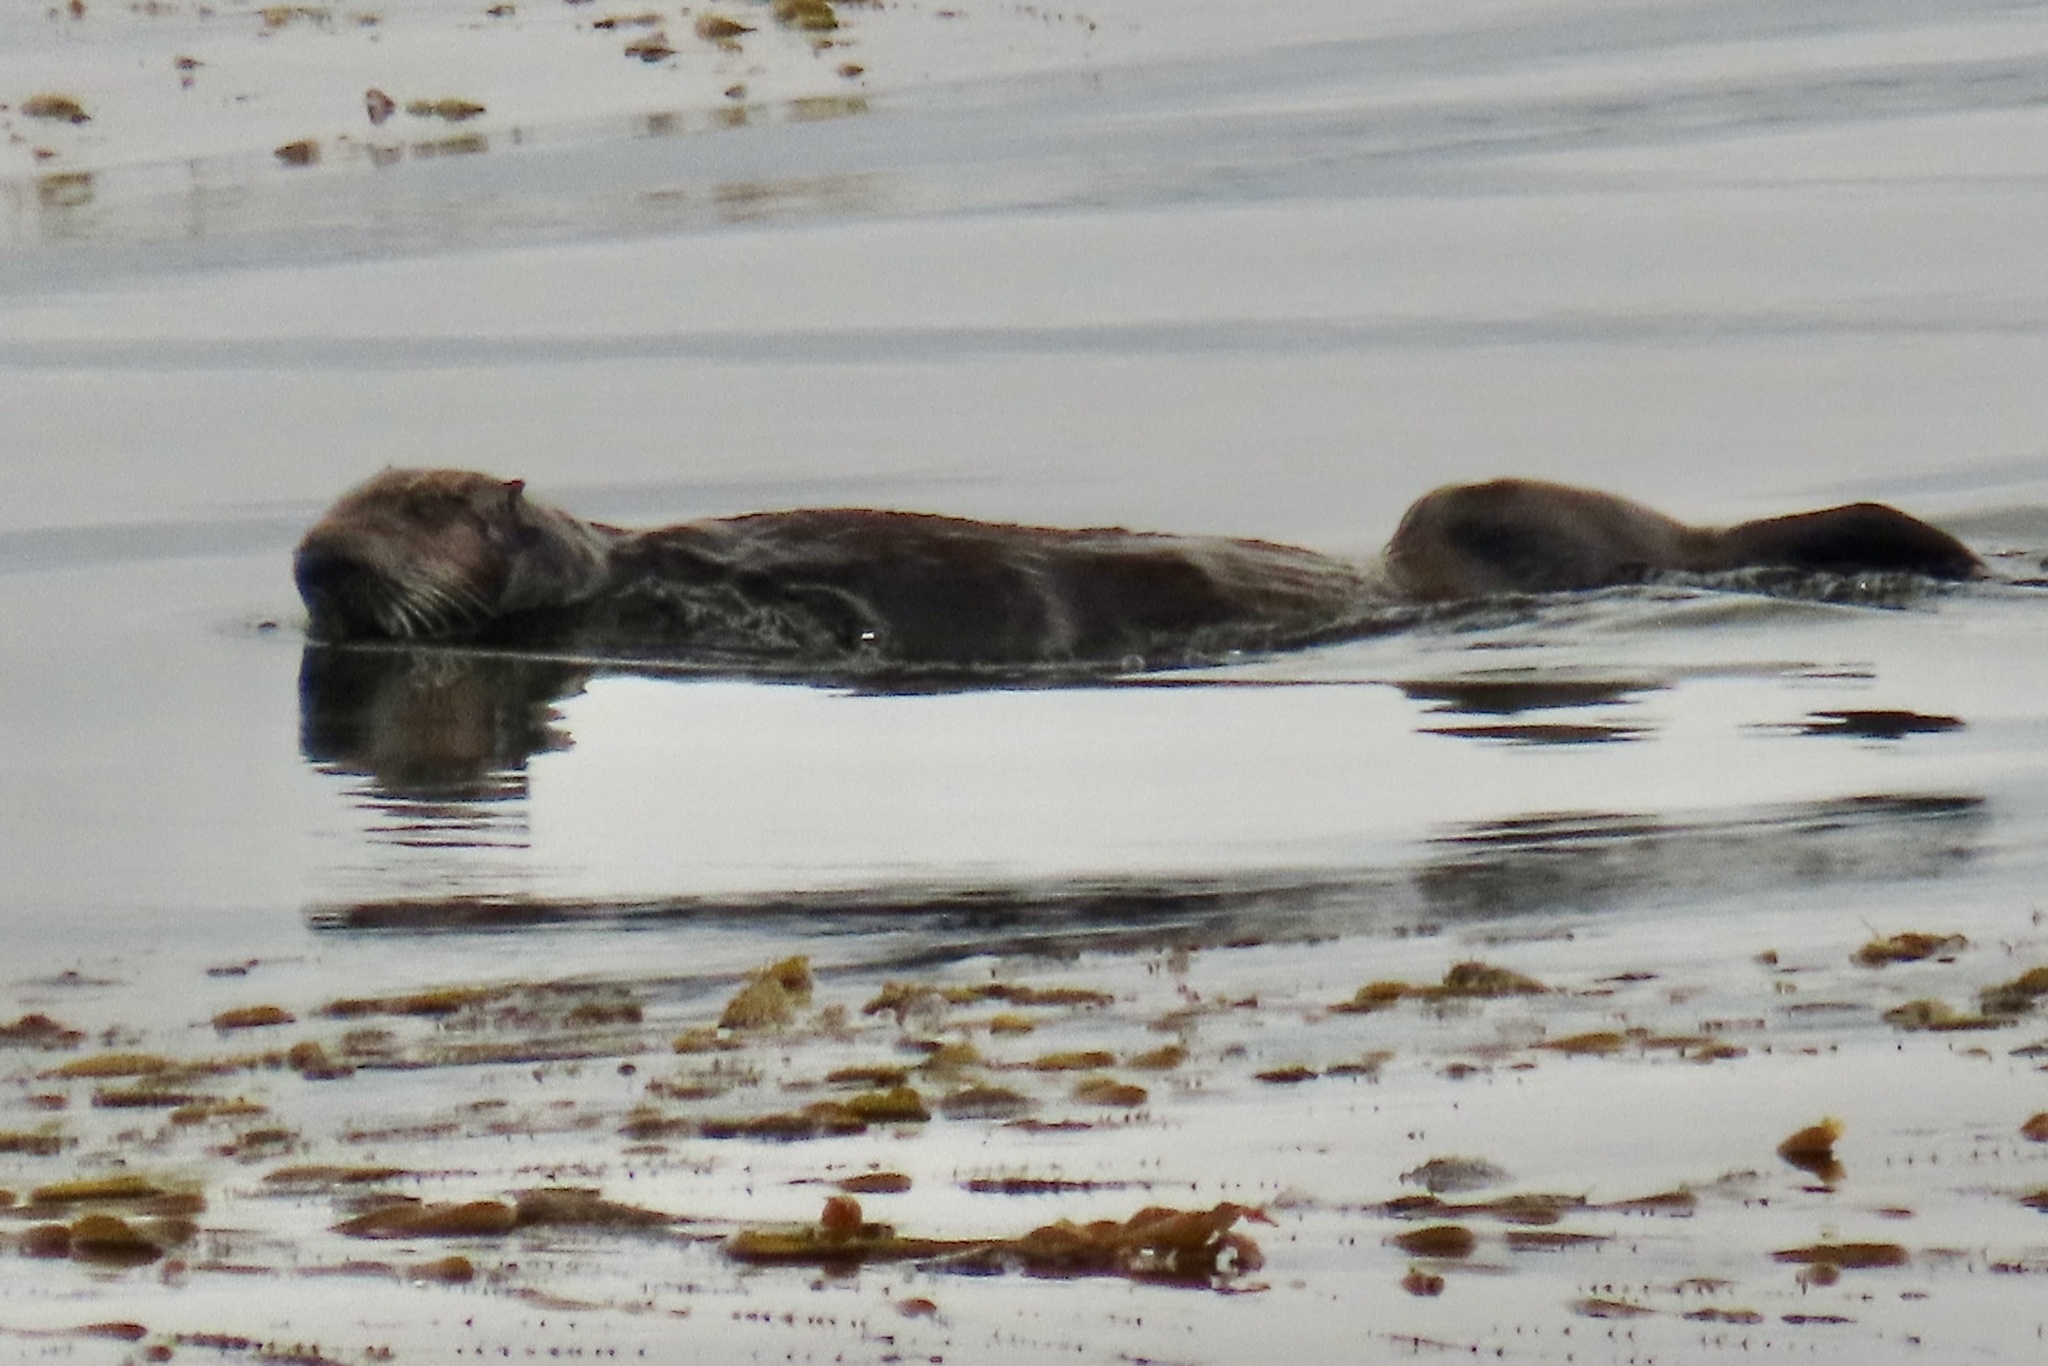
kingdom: Animalia
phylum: Chordata
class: Mammalia
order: Carnivora
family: Mustelidae
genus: Enhydra
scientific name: Enhydra lutris
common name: Sea otter
